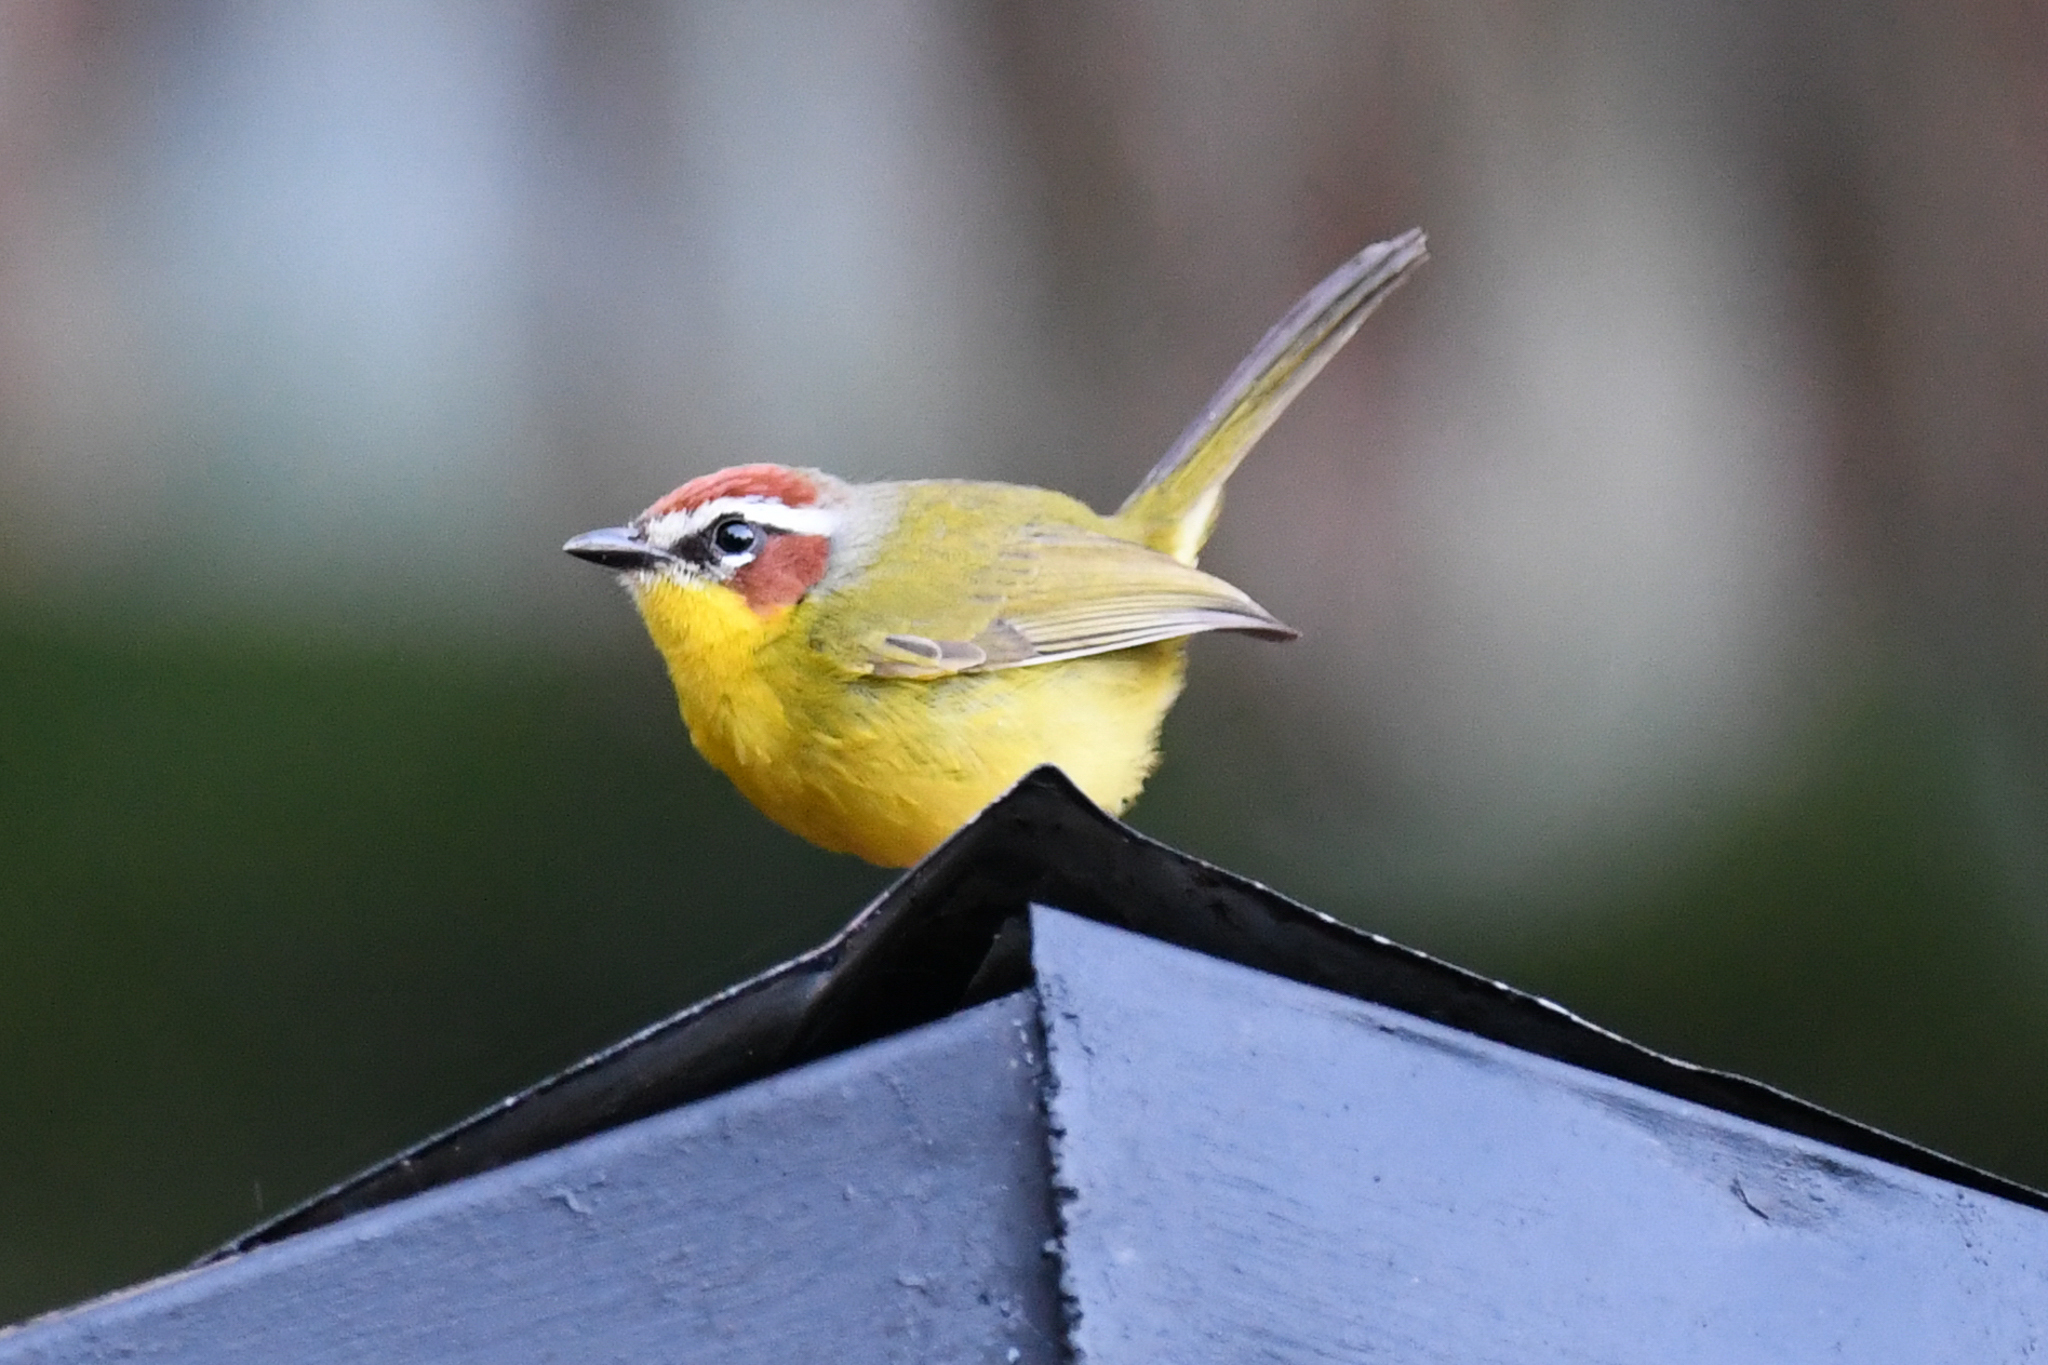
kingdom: Animalia
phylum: Chordata
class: Aves
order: Passeriformes
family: Parulidae
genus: Basileuterus
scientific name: Basileuterus rufifrons
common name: Rufous-capped warbler
